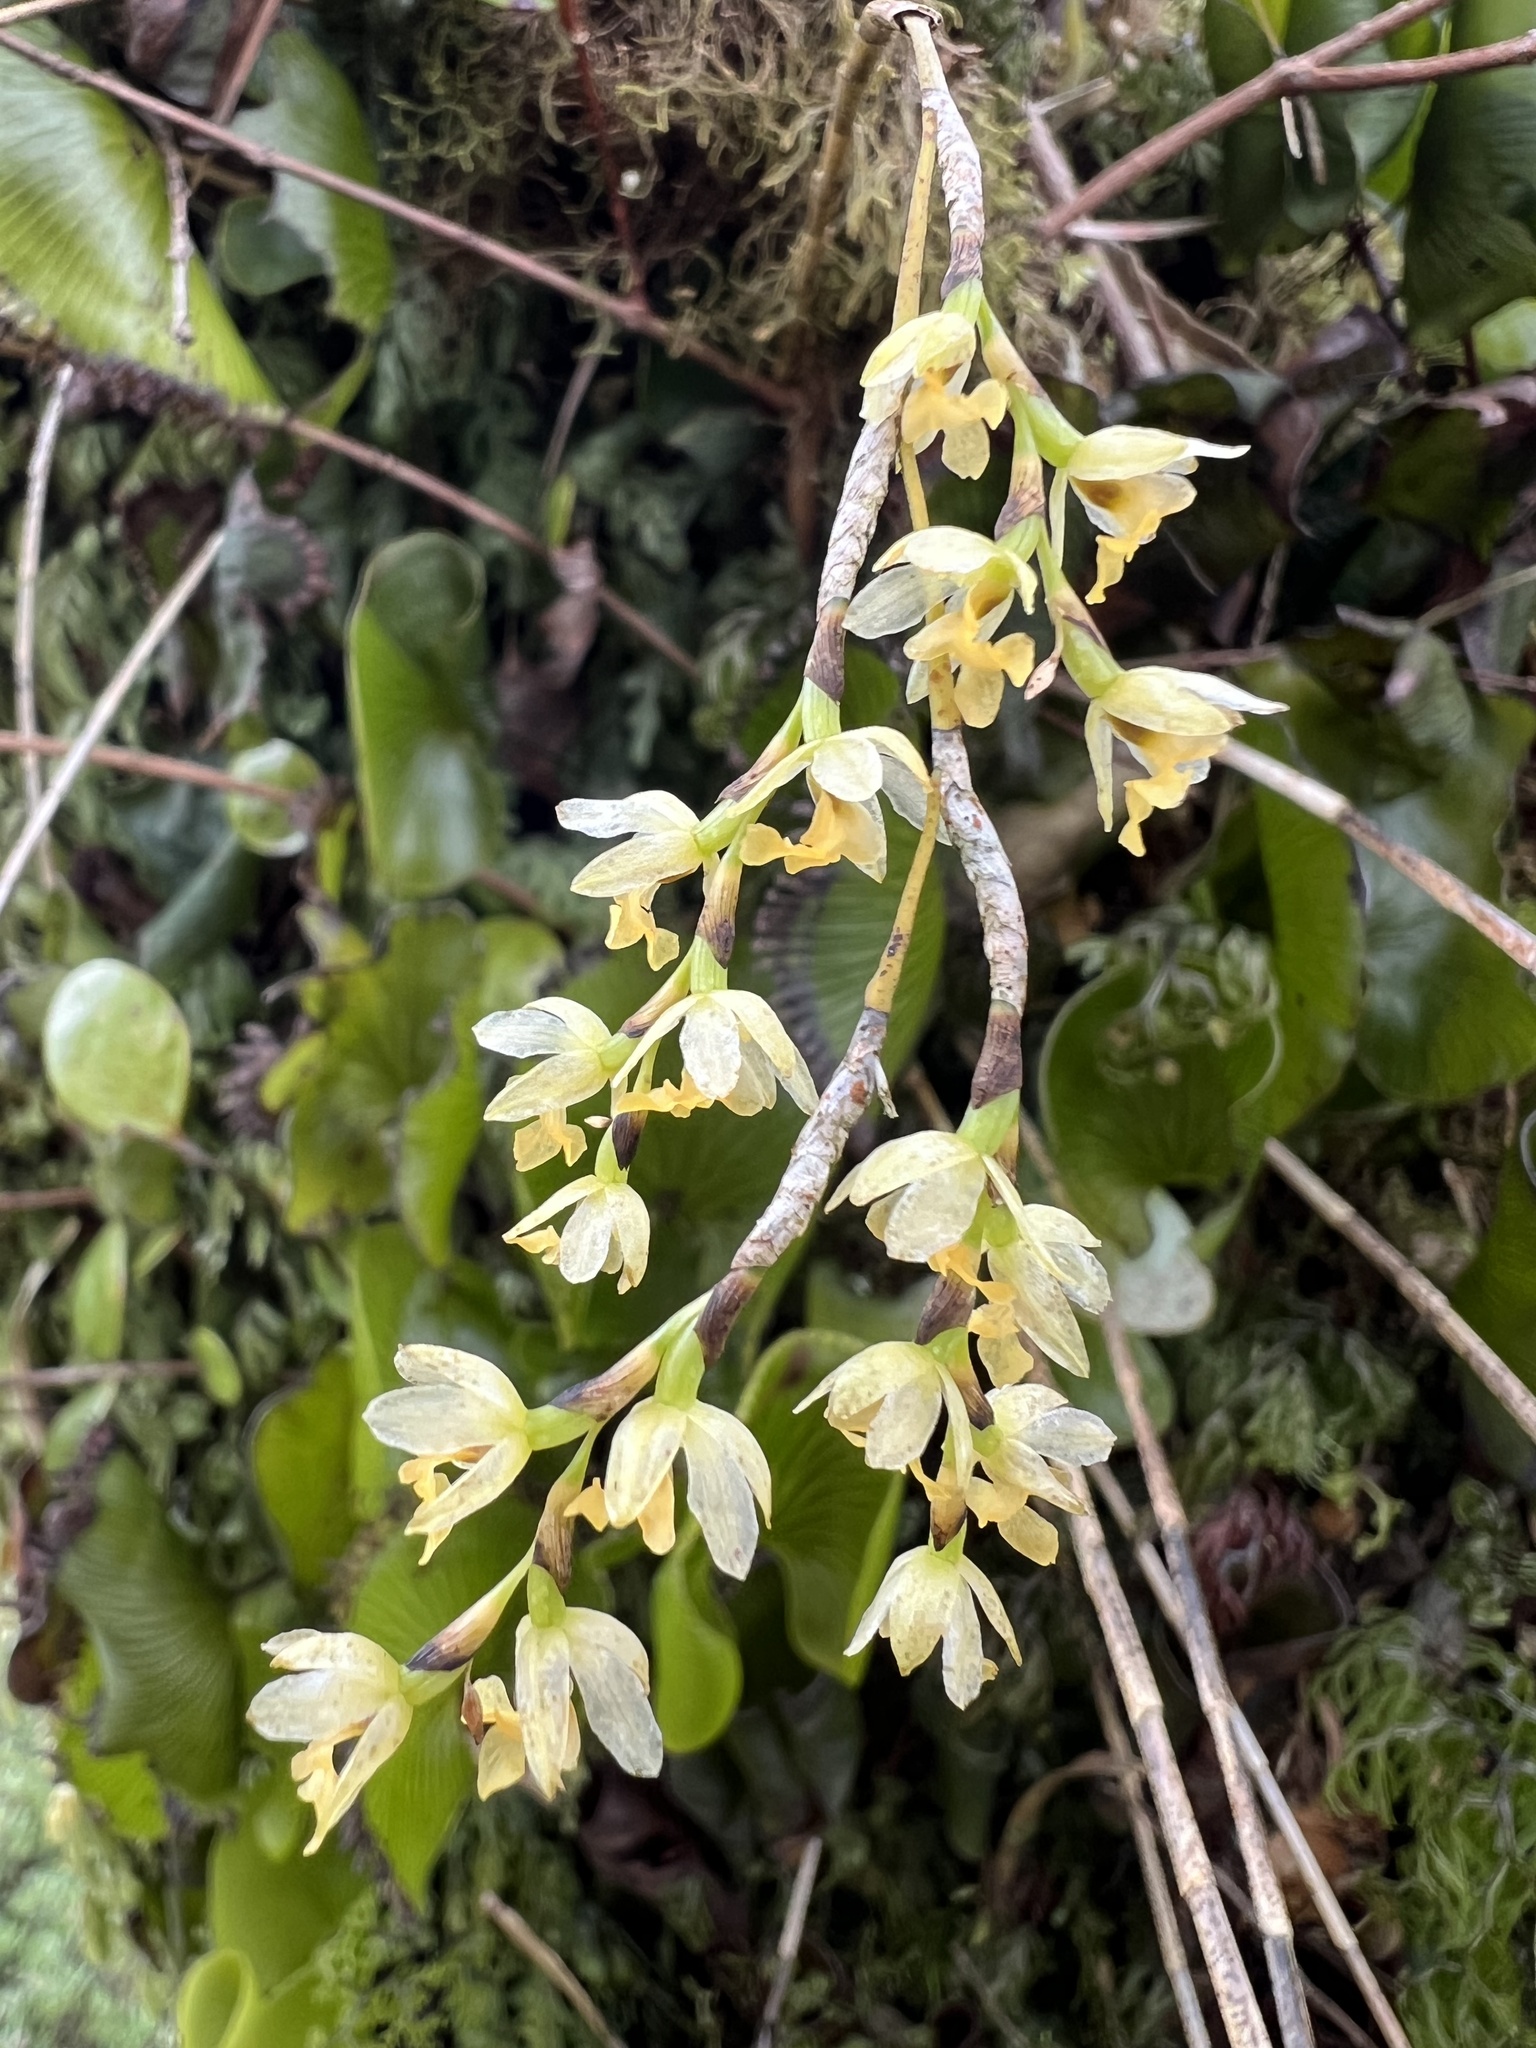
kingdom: Plantae
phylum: Tracheophyta
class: Liliopsida
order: Asparagales
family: Orchidaceae
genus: Earina
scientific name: Earina mucronata
